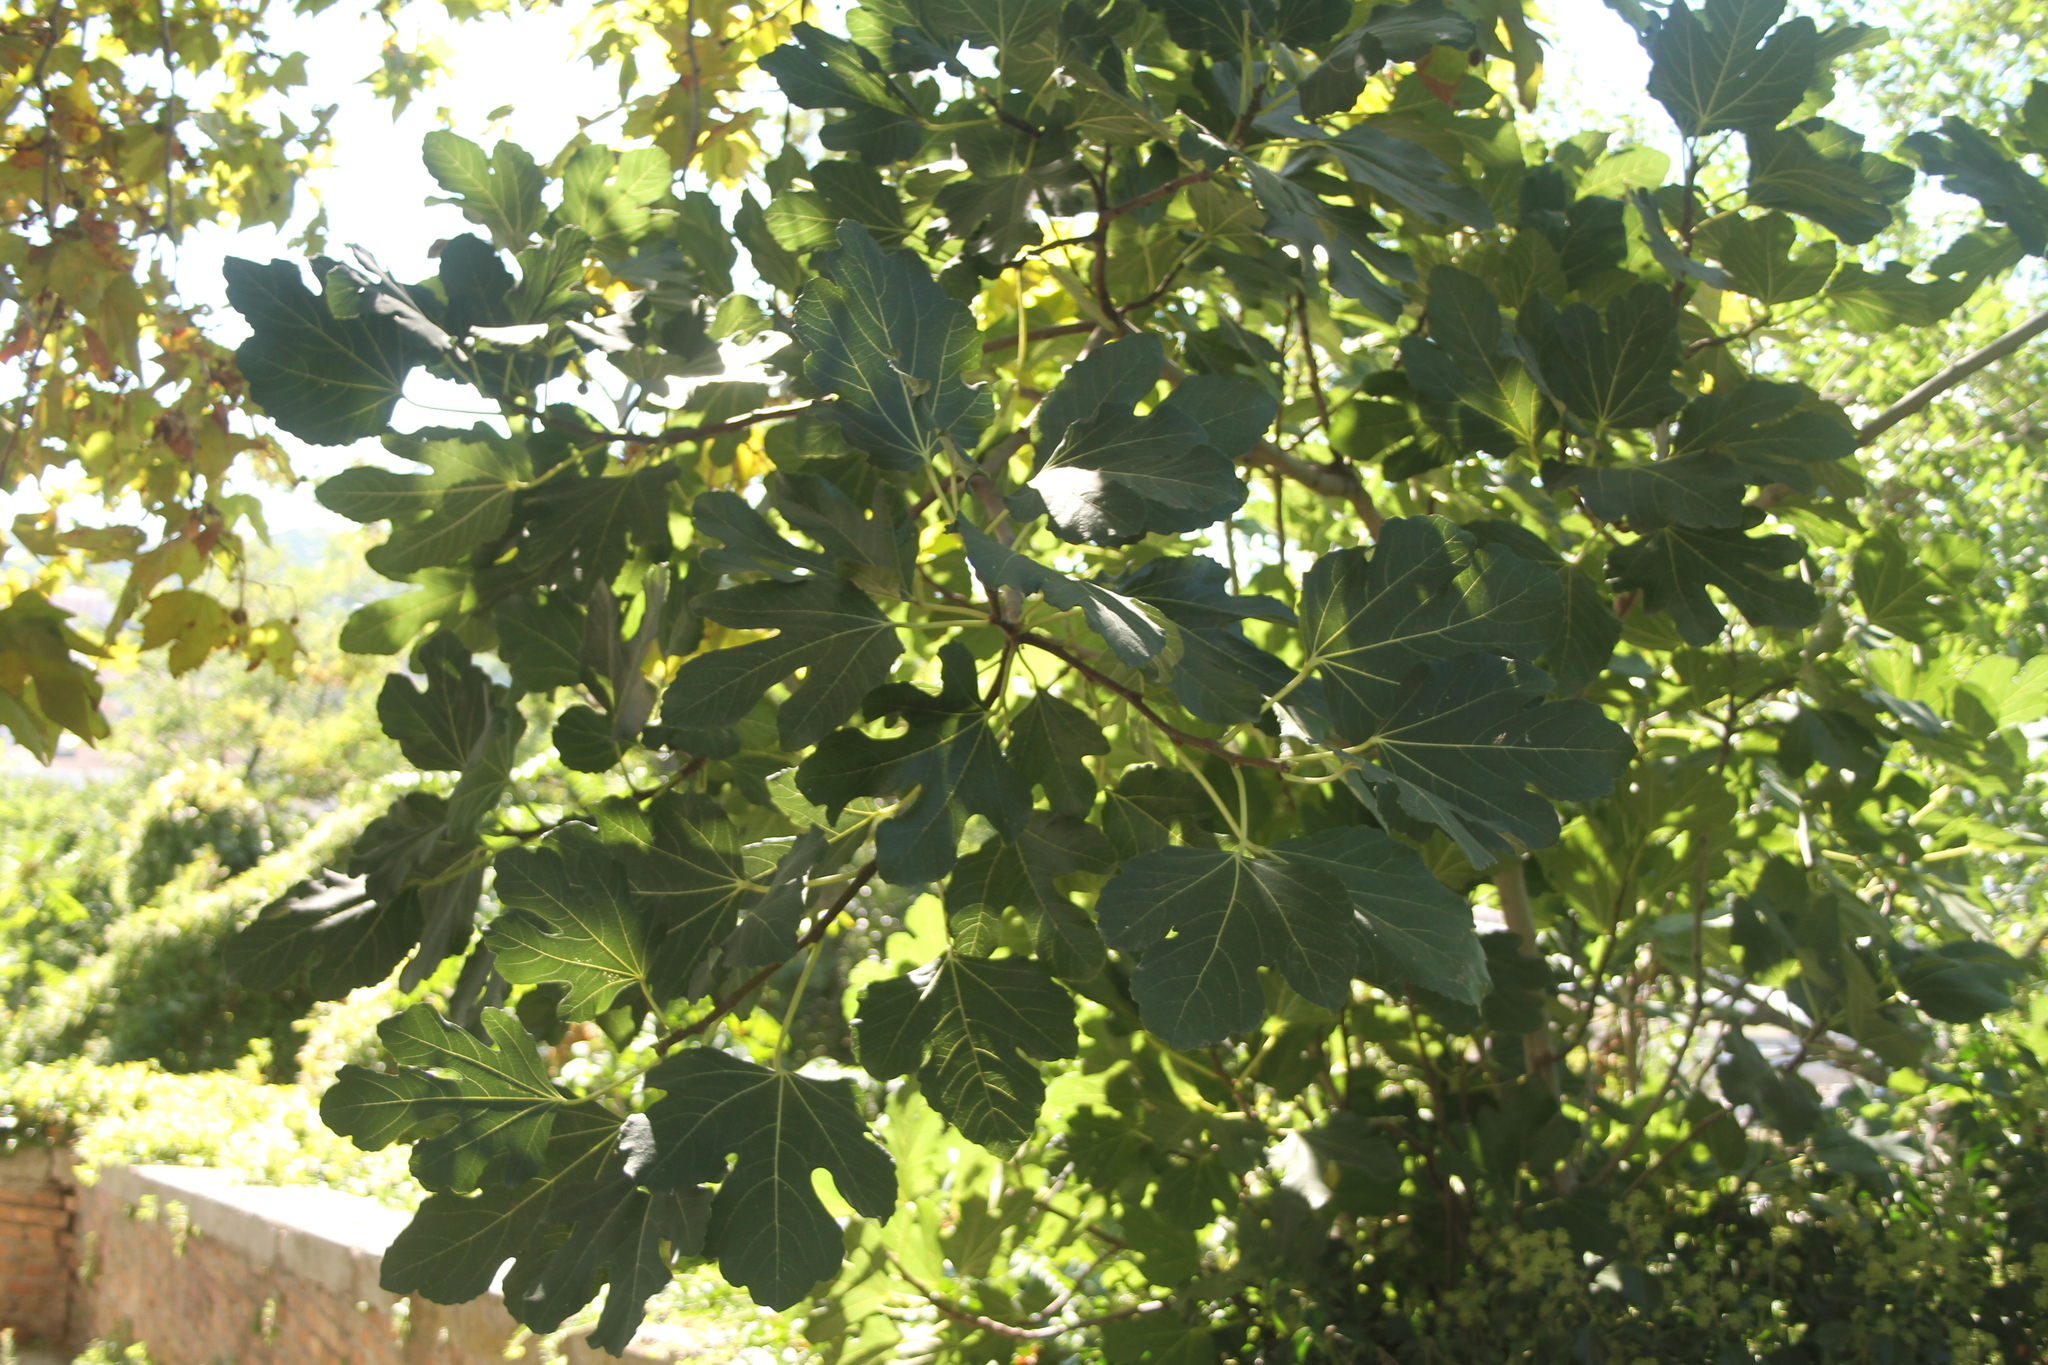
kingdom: Plantae
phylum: Tracheophyta
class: Magnoliopsida
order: Rosales
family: Moraceae
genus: Ficus
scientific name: Ficus carica
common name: Fig
